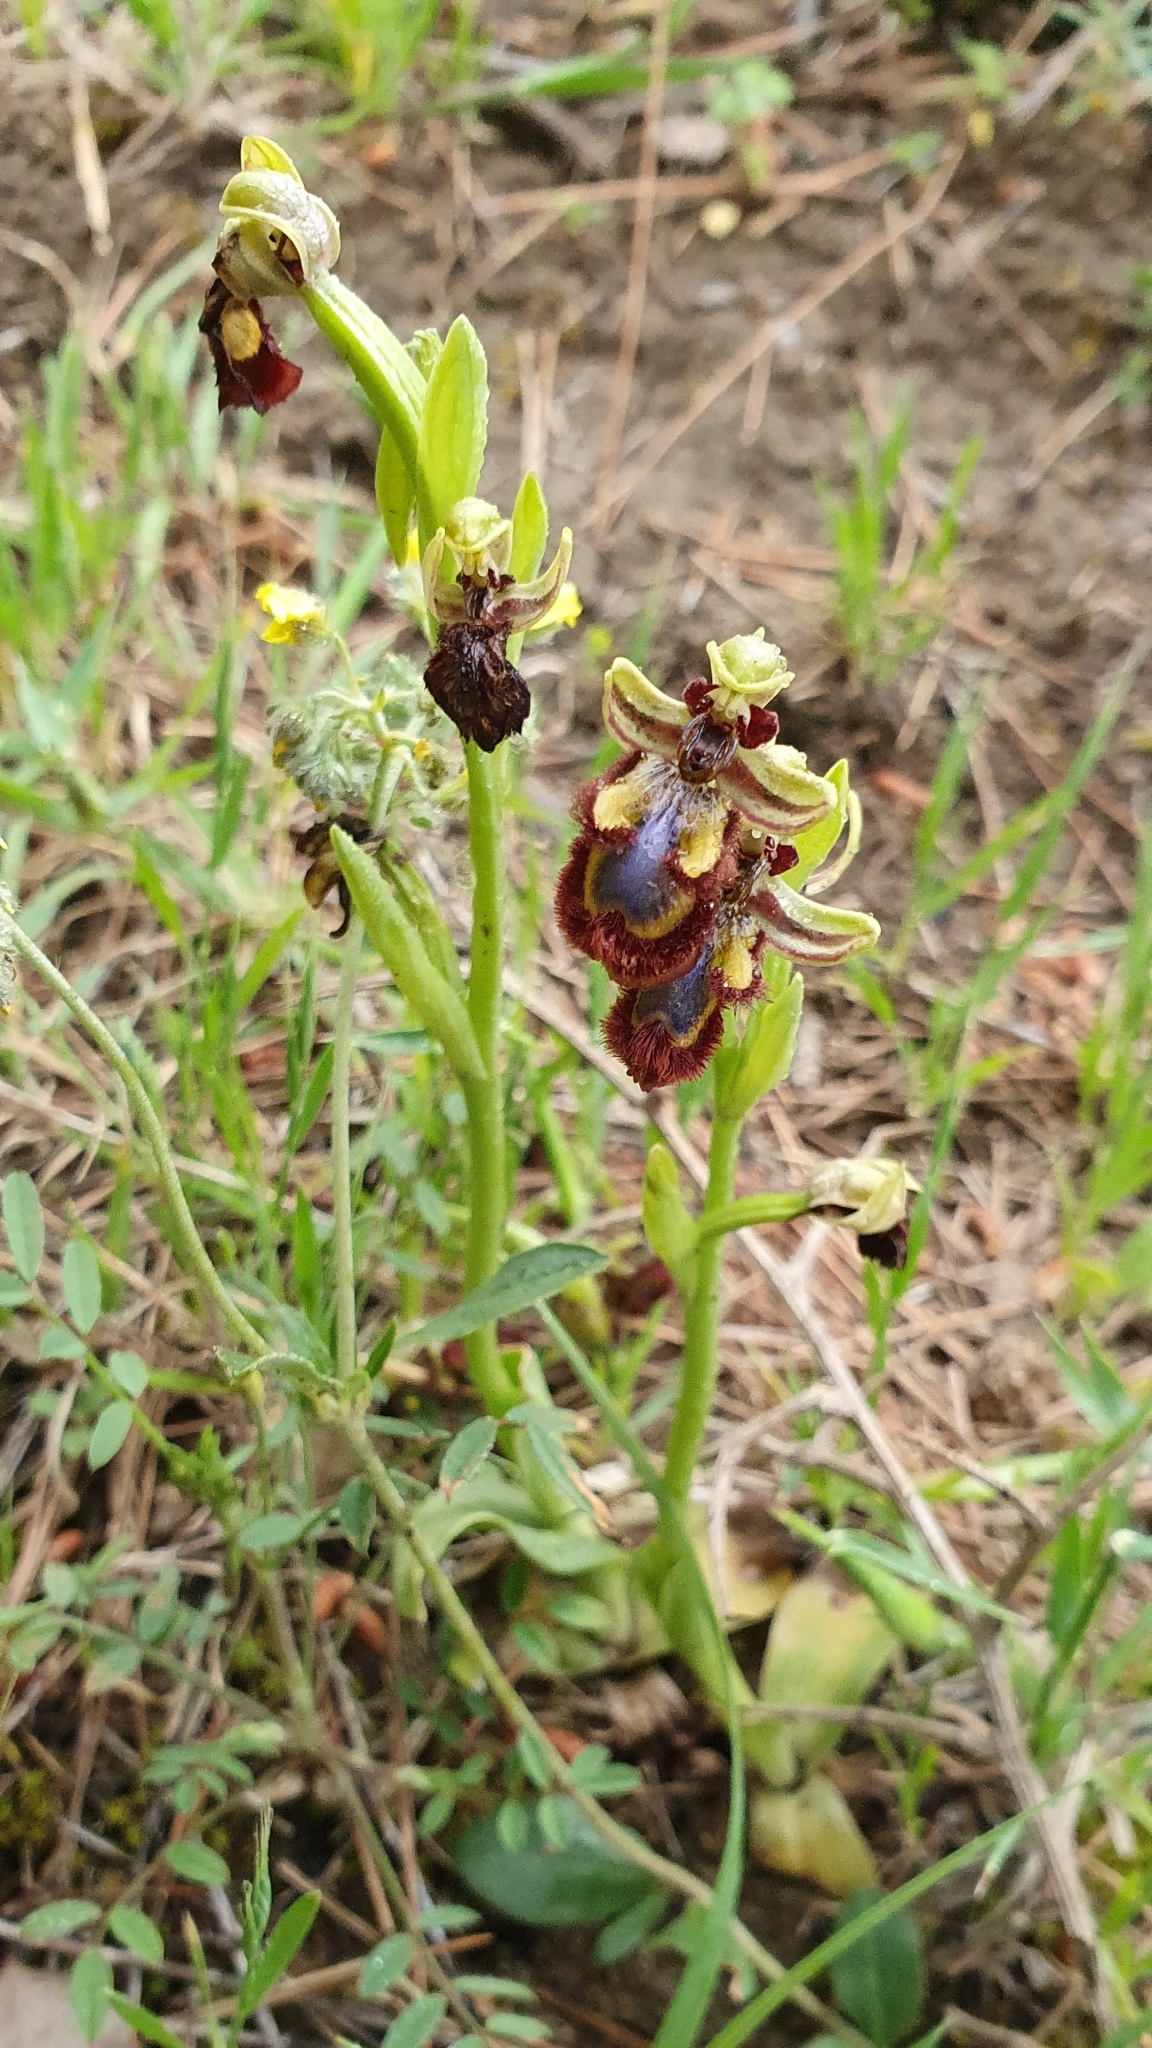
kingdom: Plantae
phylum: Tracheophyta
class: Liliopsida
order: Asparagales
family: Orchidaceae
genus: Ophrys
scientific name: Ophrys speculum
